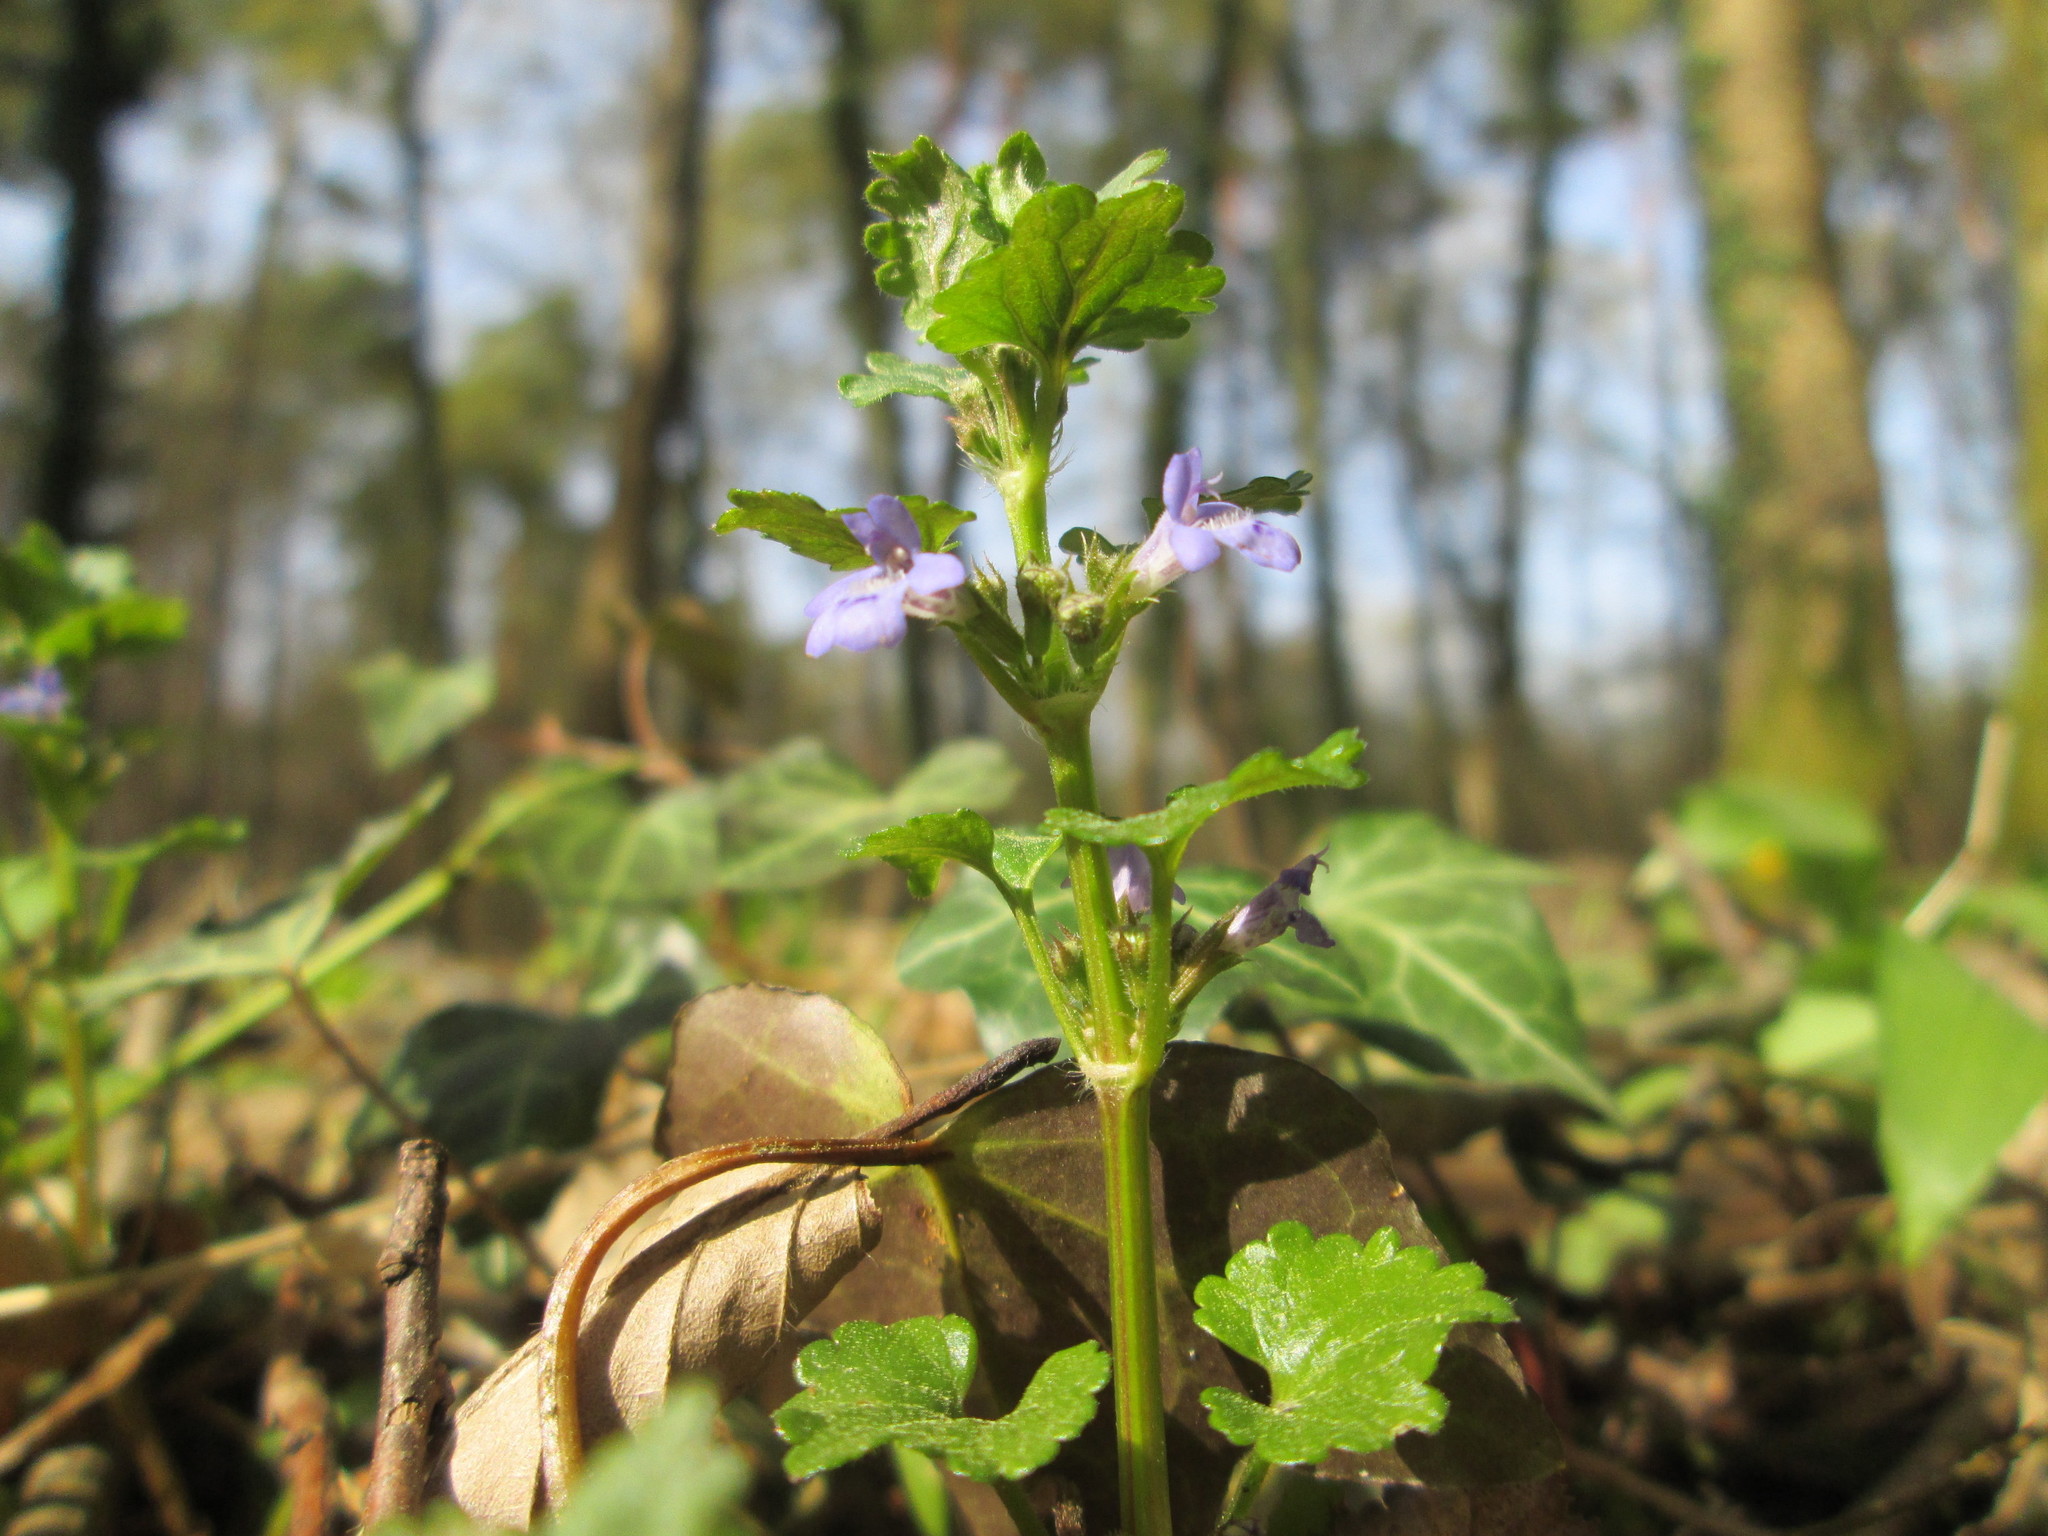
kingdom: Plantae
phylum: Tracheophyta
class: Magnoliopsida
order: Lamiales
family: Lamiaceae
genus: Glechoma
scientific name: Glechoma hederacea
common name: Ground ivy
